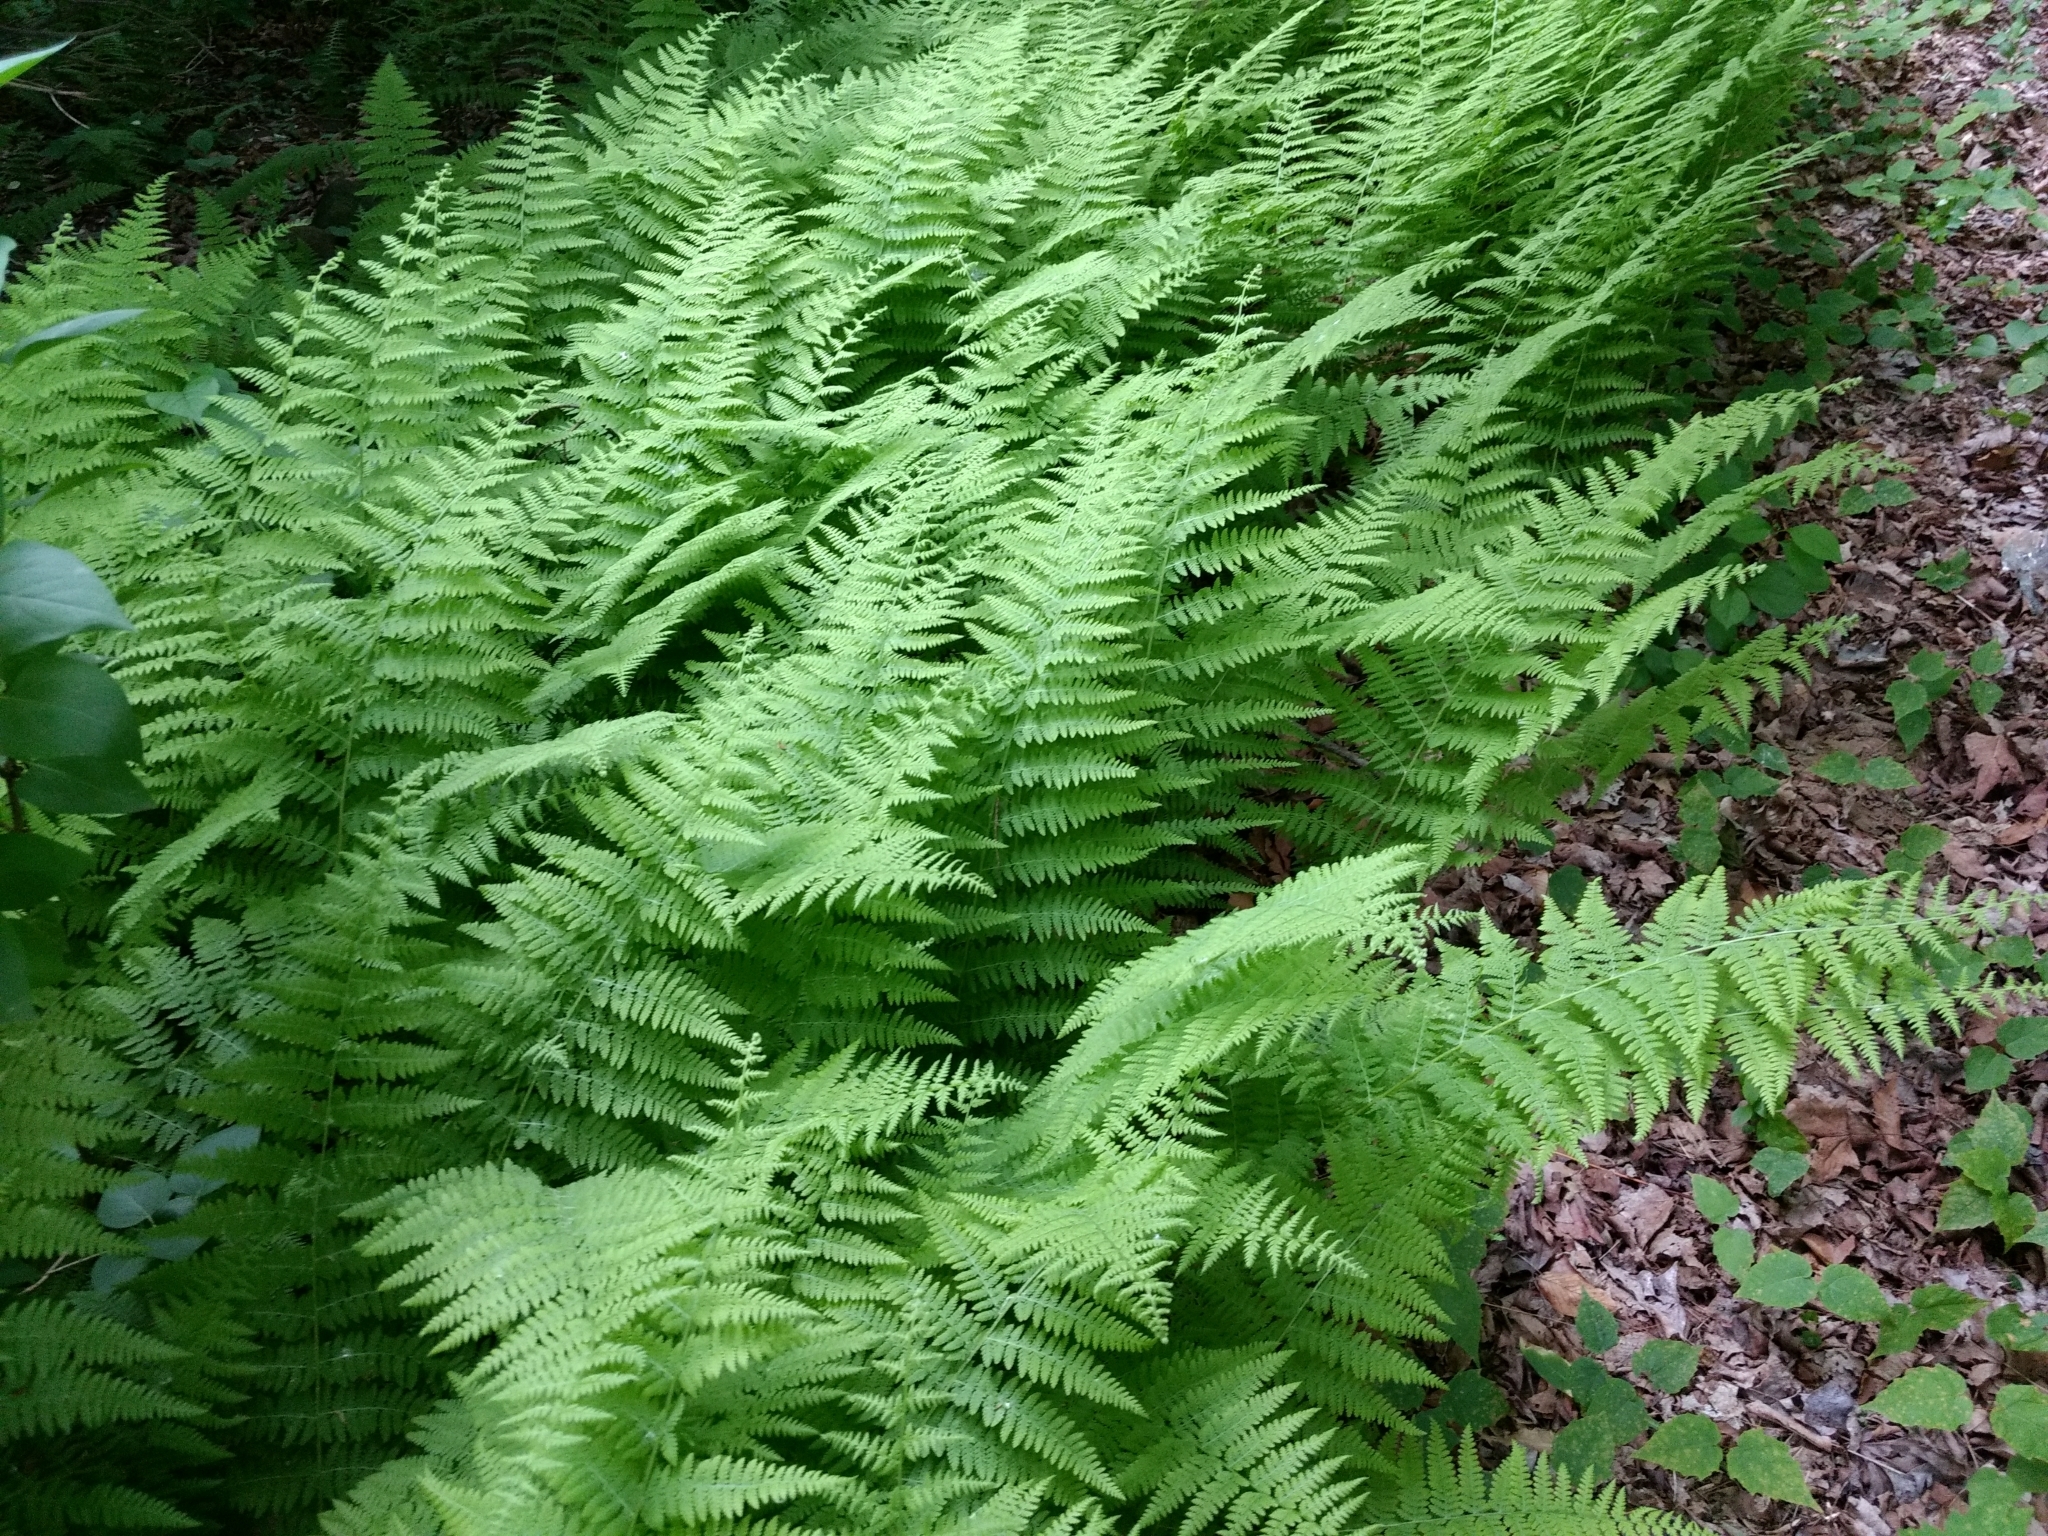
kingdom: Plantae
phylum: Tracheophyta
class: Polypodiopsida
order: Polypodiales
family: Dennstaedtiaceae
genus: Sitobolium
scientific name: Sitobolium punctilobum
